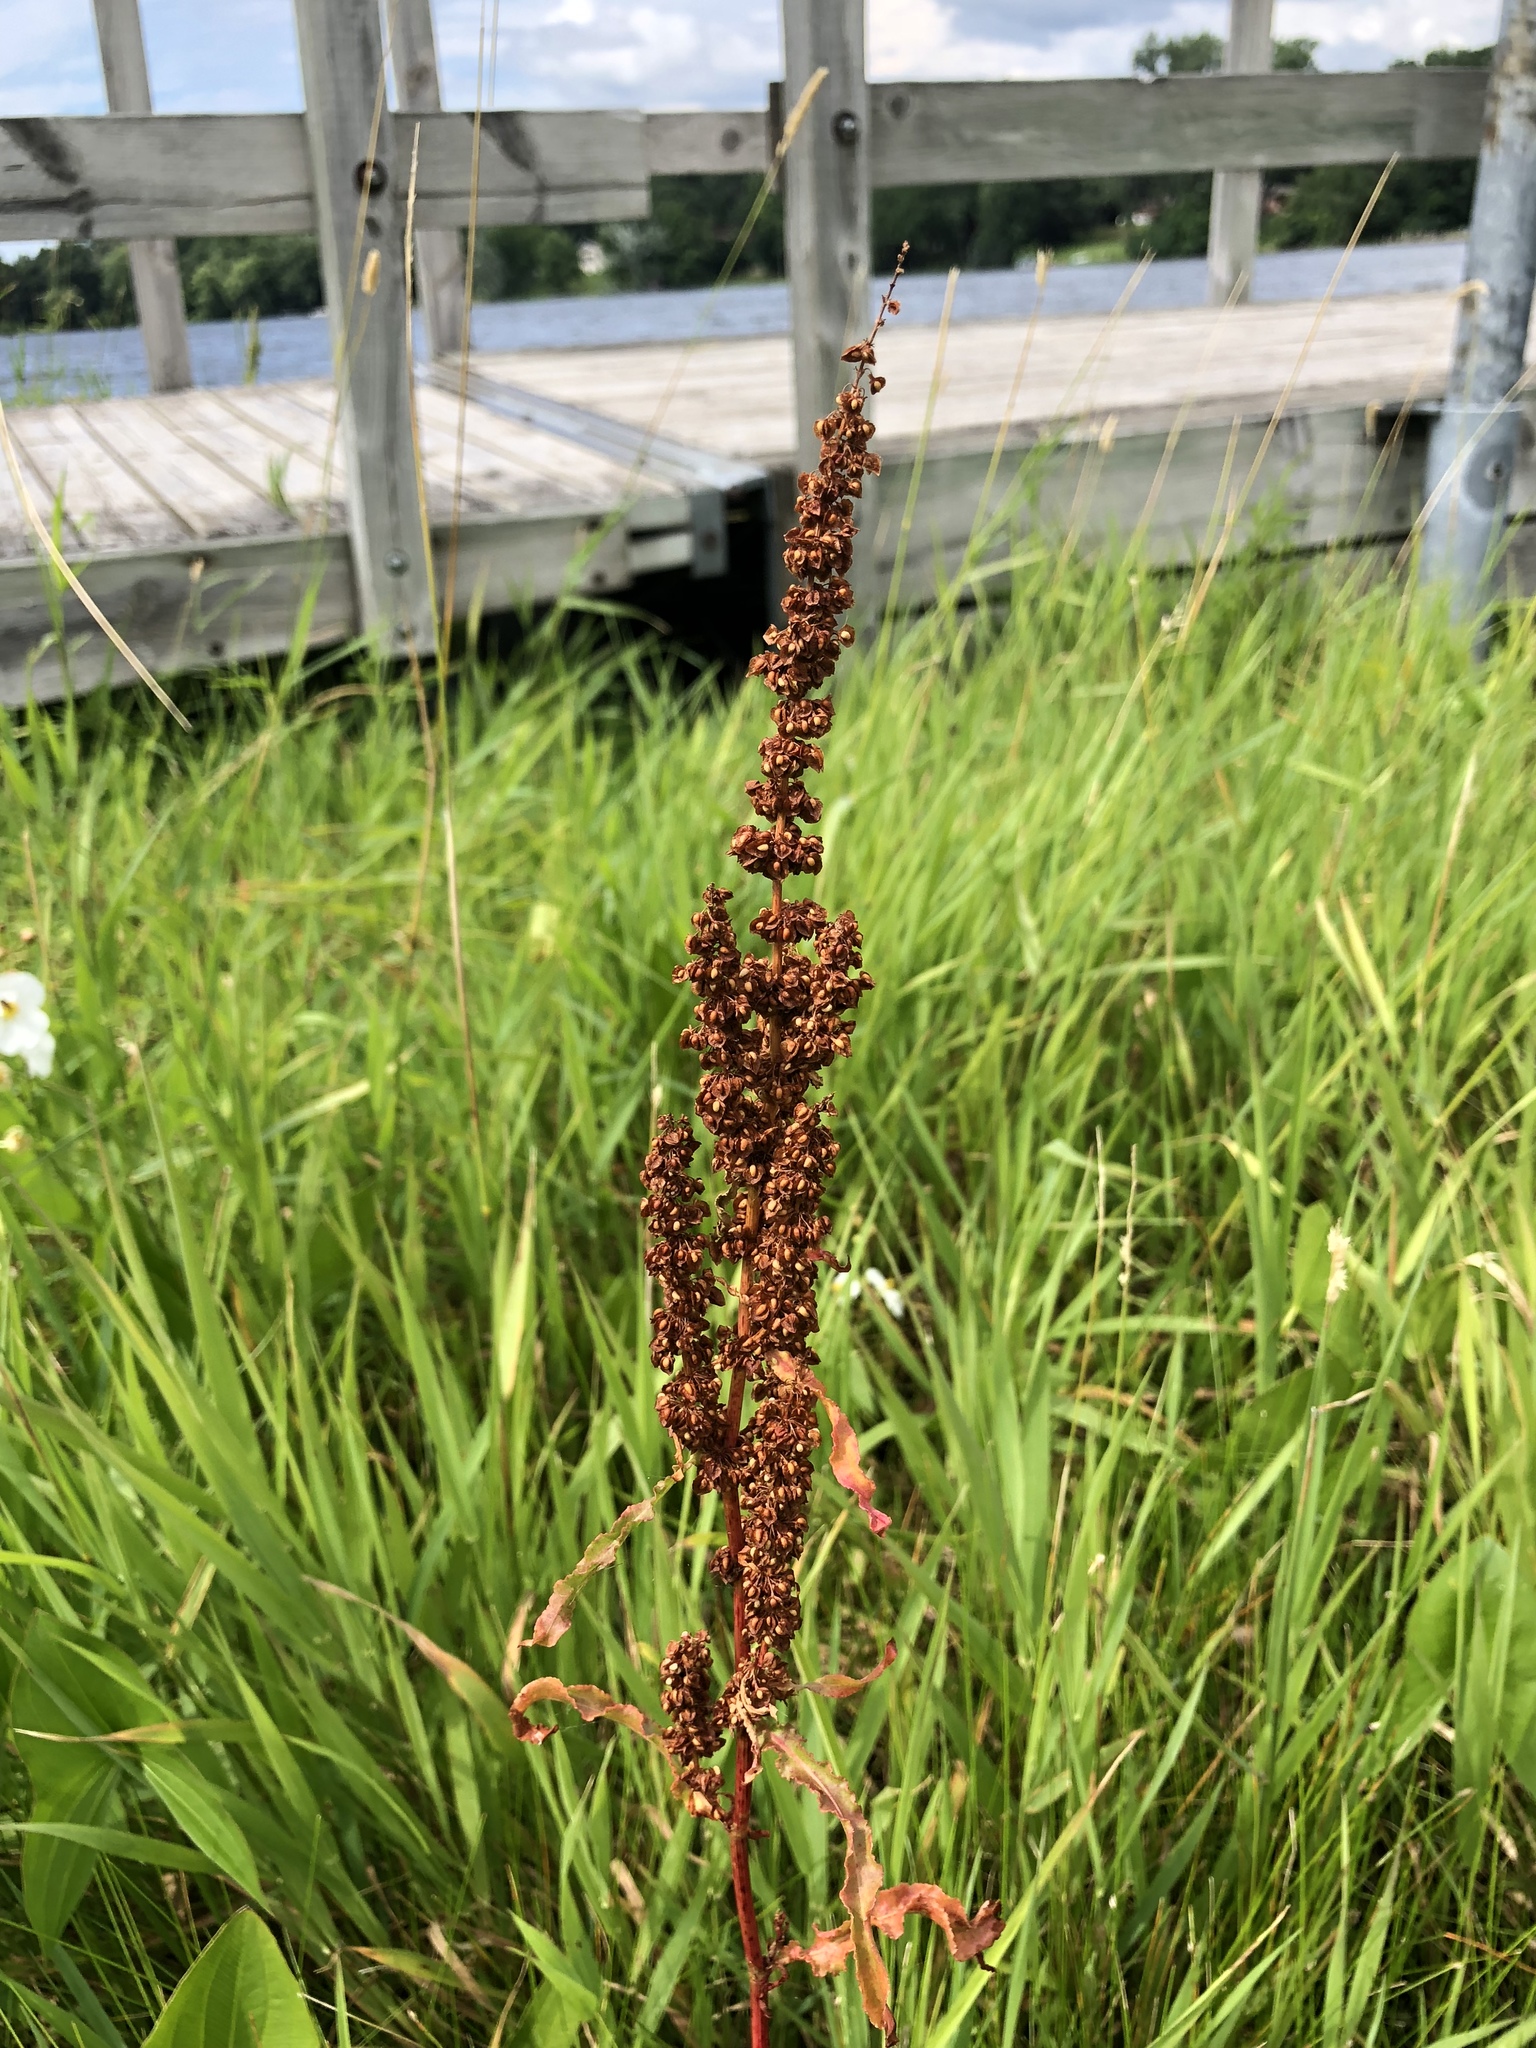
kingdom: Plantae
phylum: Tracheophyta
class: Magnoliopsida
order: Caryophyllales
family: Polygonaceae
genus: Rumex
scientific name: Rumex crispus
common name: Curled dock
